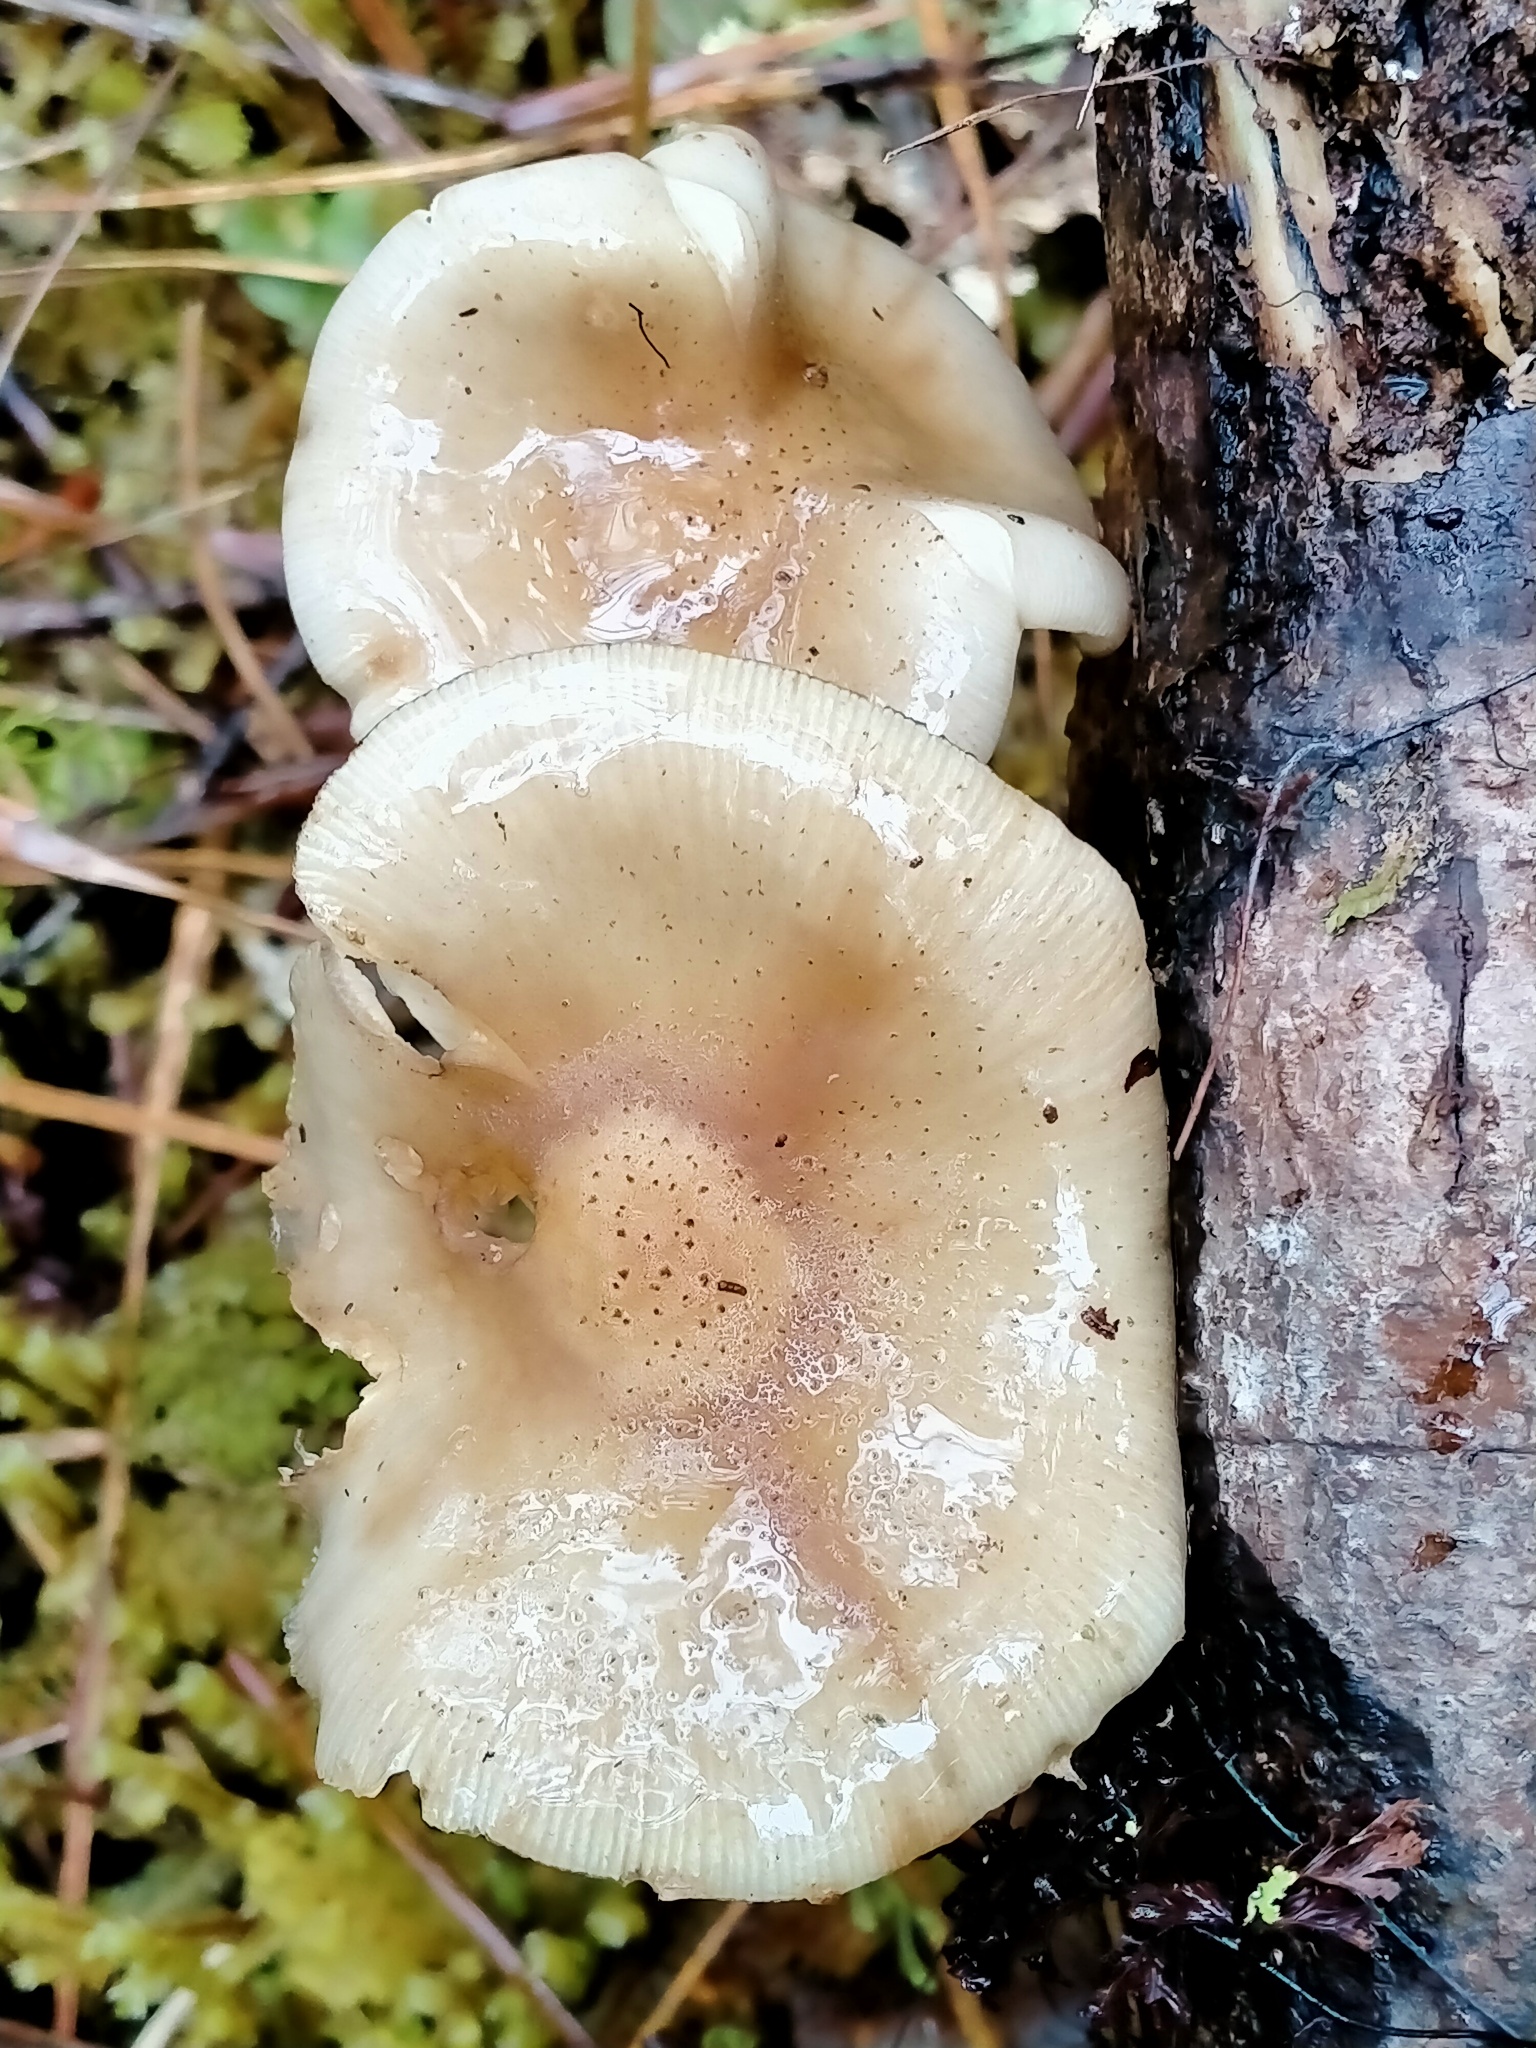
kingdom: Fungi
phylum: Basidiomycota
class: Agaricomycetes
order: Agaricales
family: Physalacriaceae
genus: Armillaria
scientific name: Armillaria novae-zelandiae
